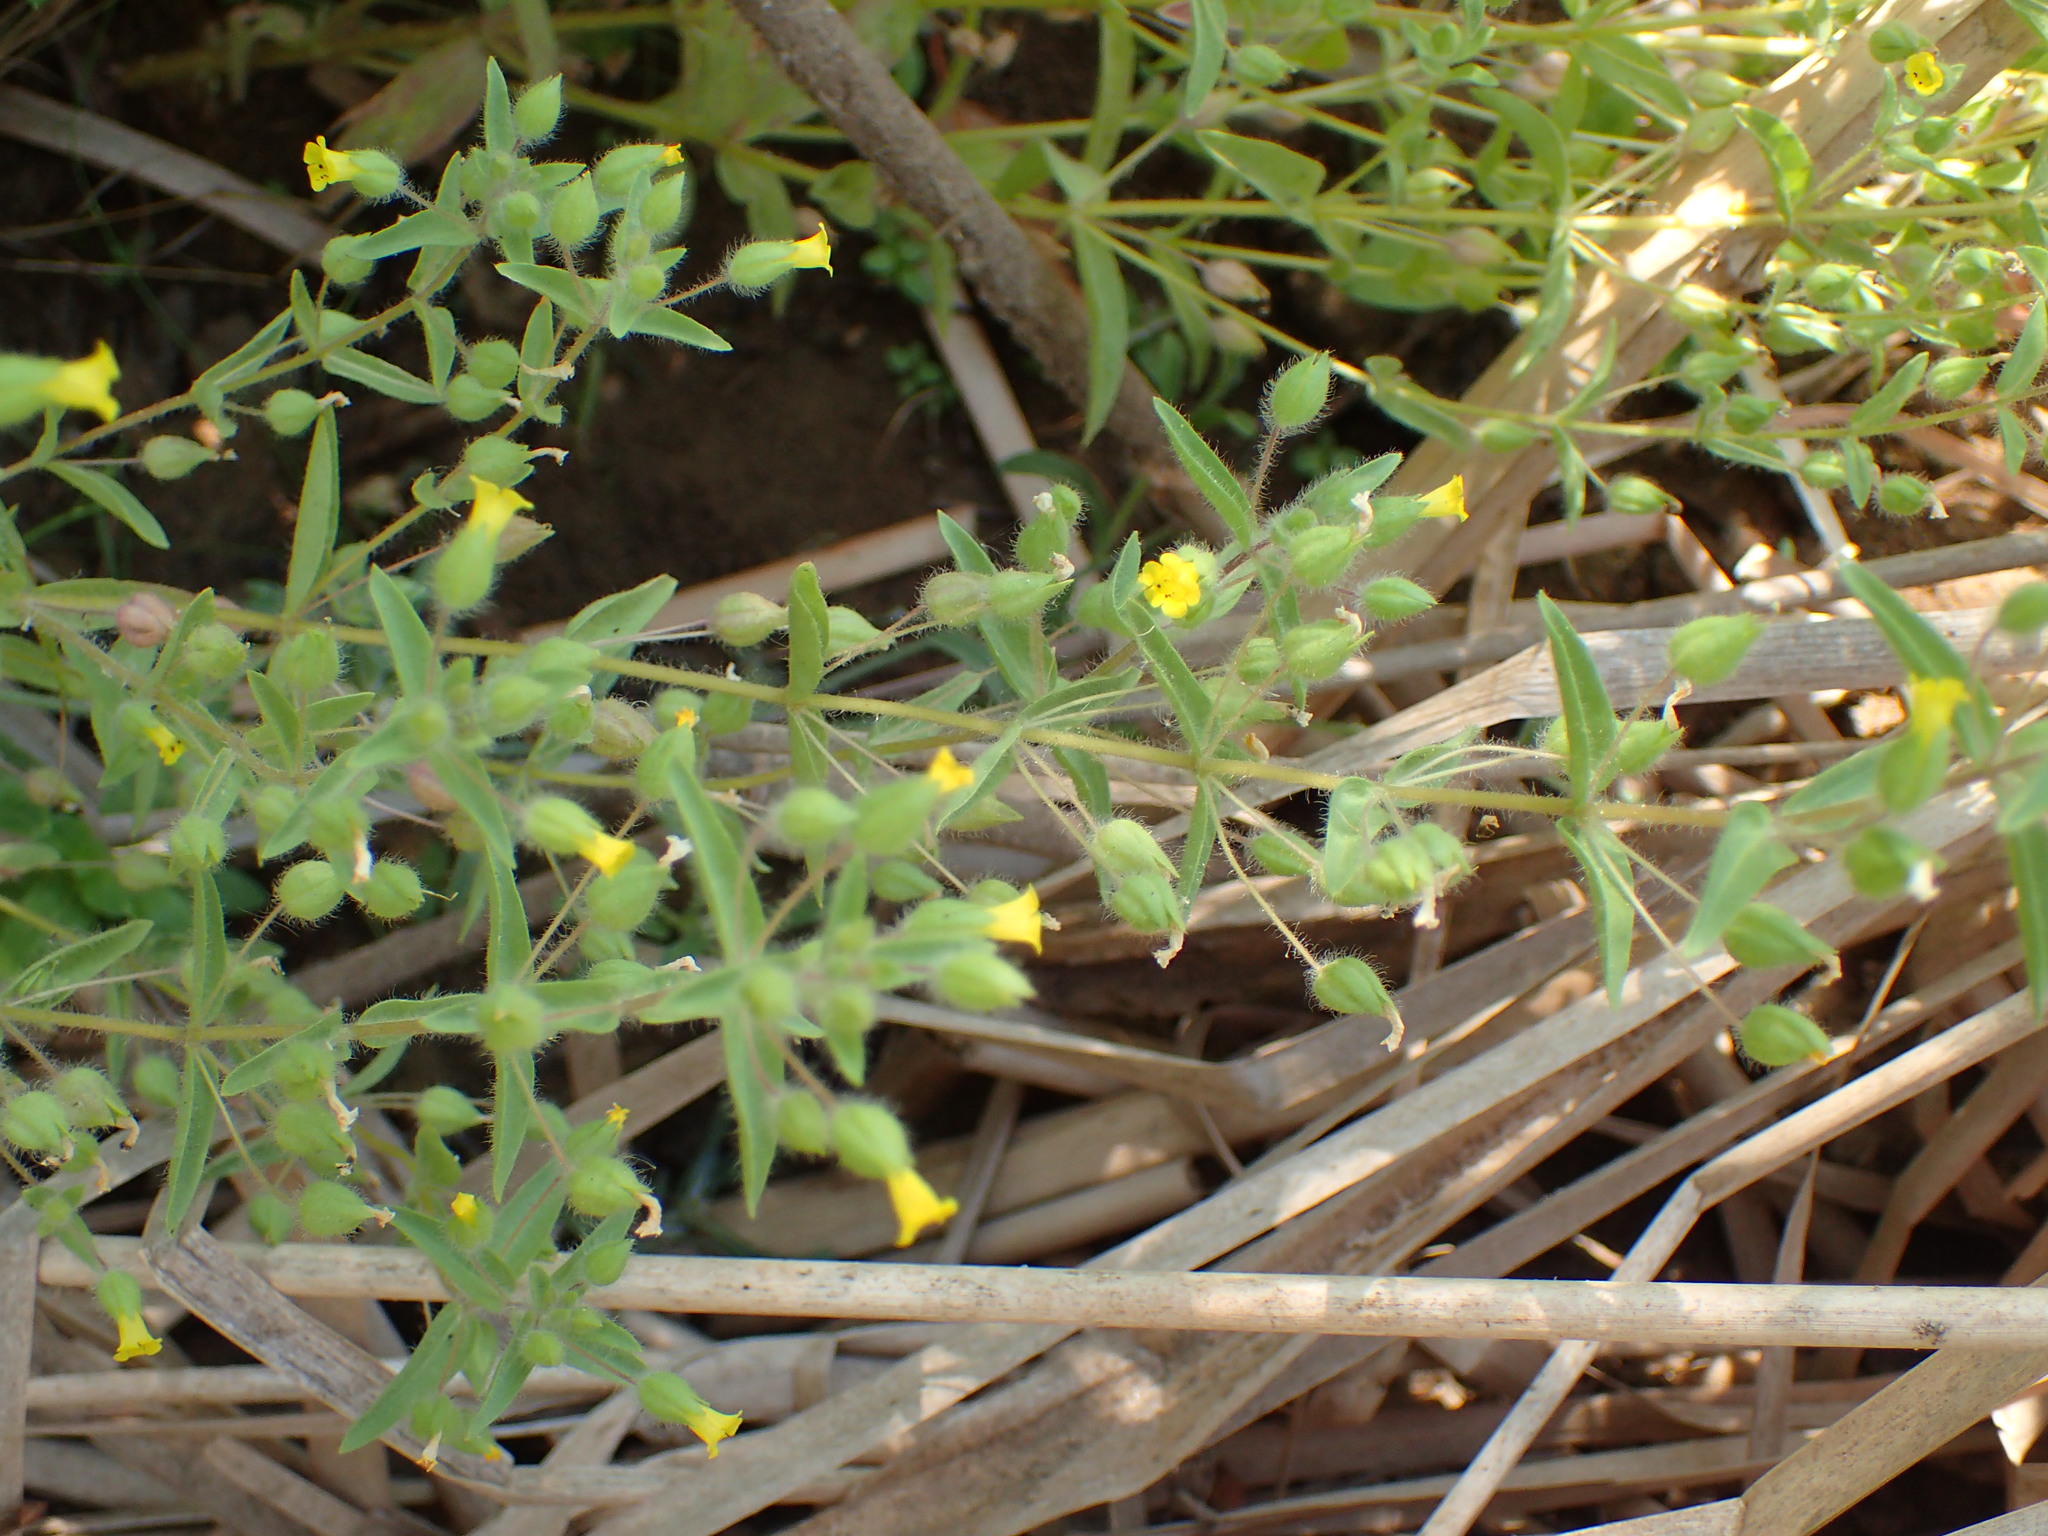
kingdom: Plantae
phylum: Tracheophyta
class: Magnoliopsida
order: Lamiales
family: Phrymaceae
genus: Mimetanthe
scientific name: Mimetanthe pilosa
